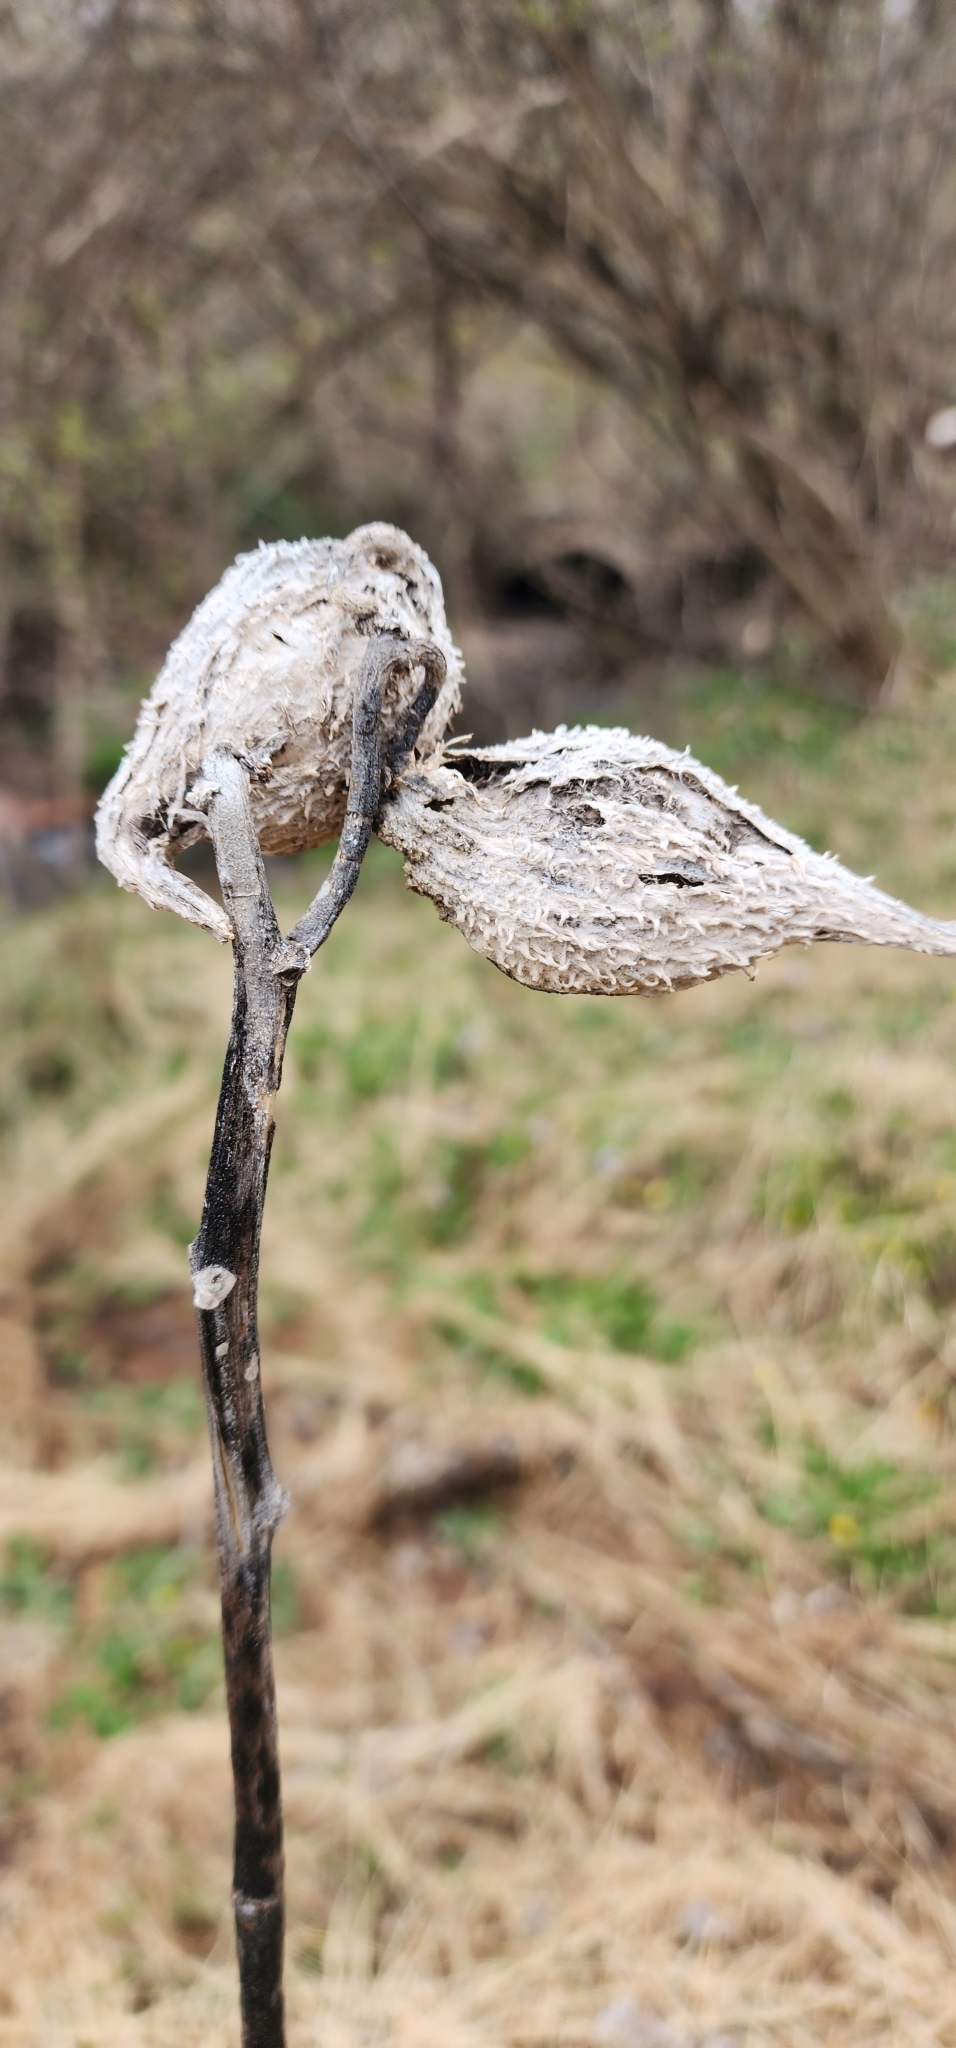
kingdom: Plantae
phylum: Tracheophyta
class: Magnoliopsida
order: Gentianales
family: Apocynaceae
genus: Asclepias
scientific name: Asclepias syriaca
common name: Common milkweed
